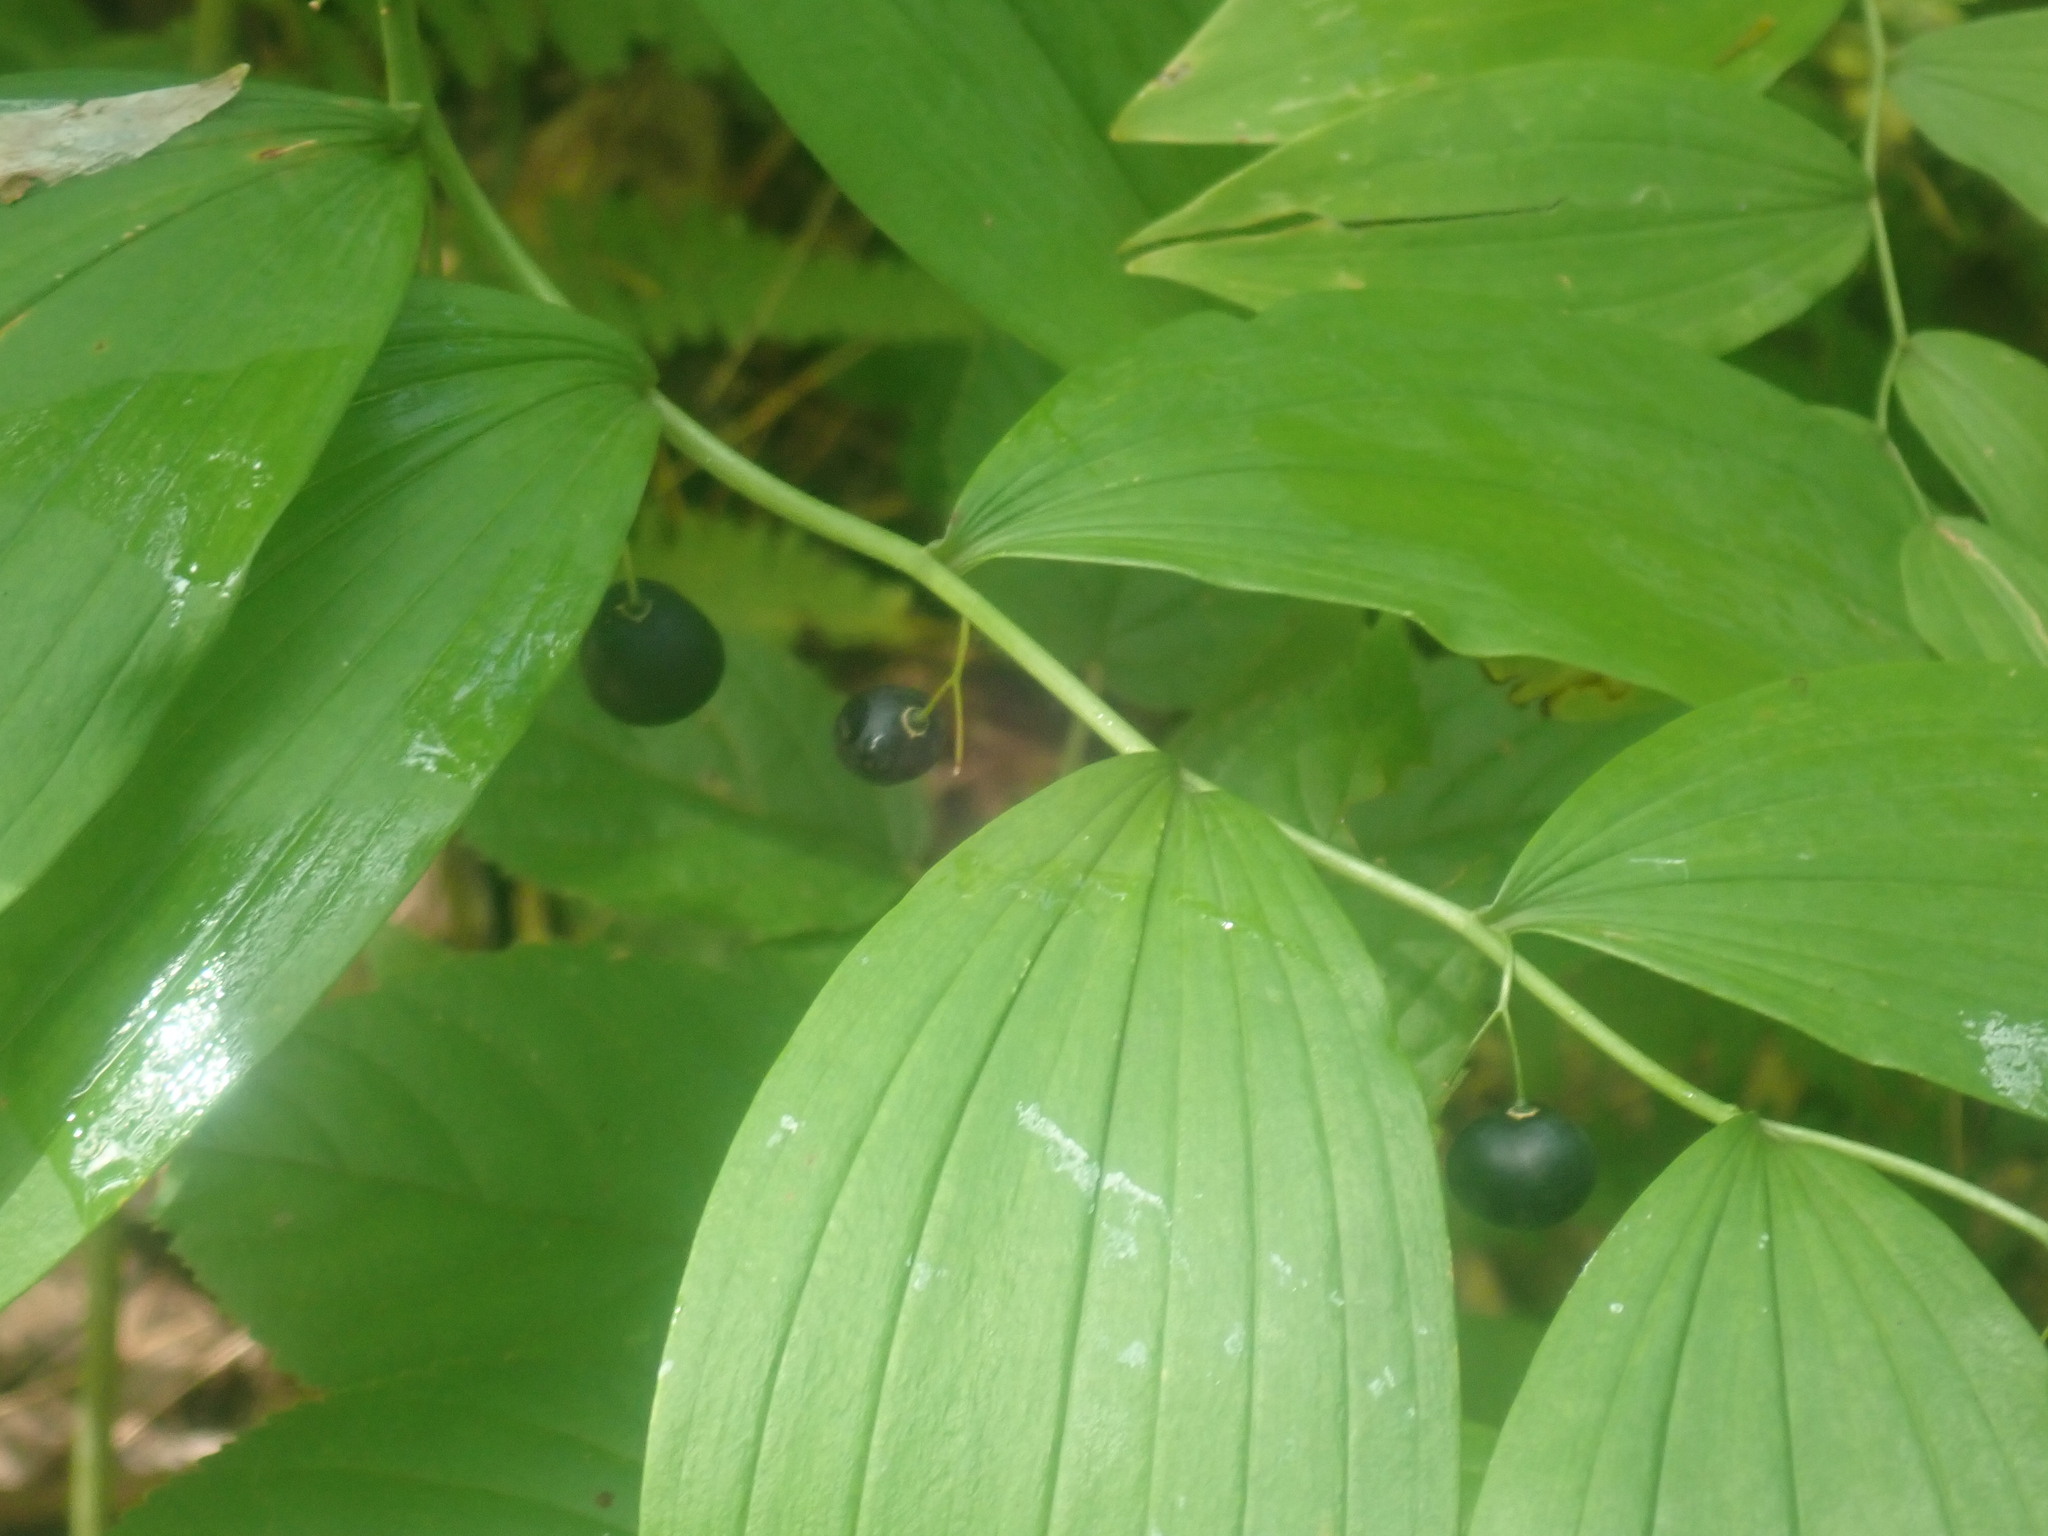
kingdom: Plantae
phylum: Tracheophyta
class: Liliopsida
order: Asparagales
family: Asparagaceae
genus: Polygonatum
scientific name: Polygonatum pubescens
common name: Downy solomon's seal
